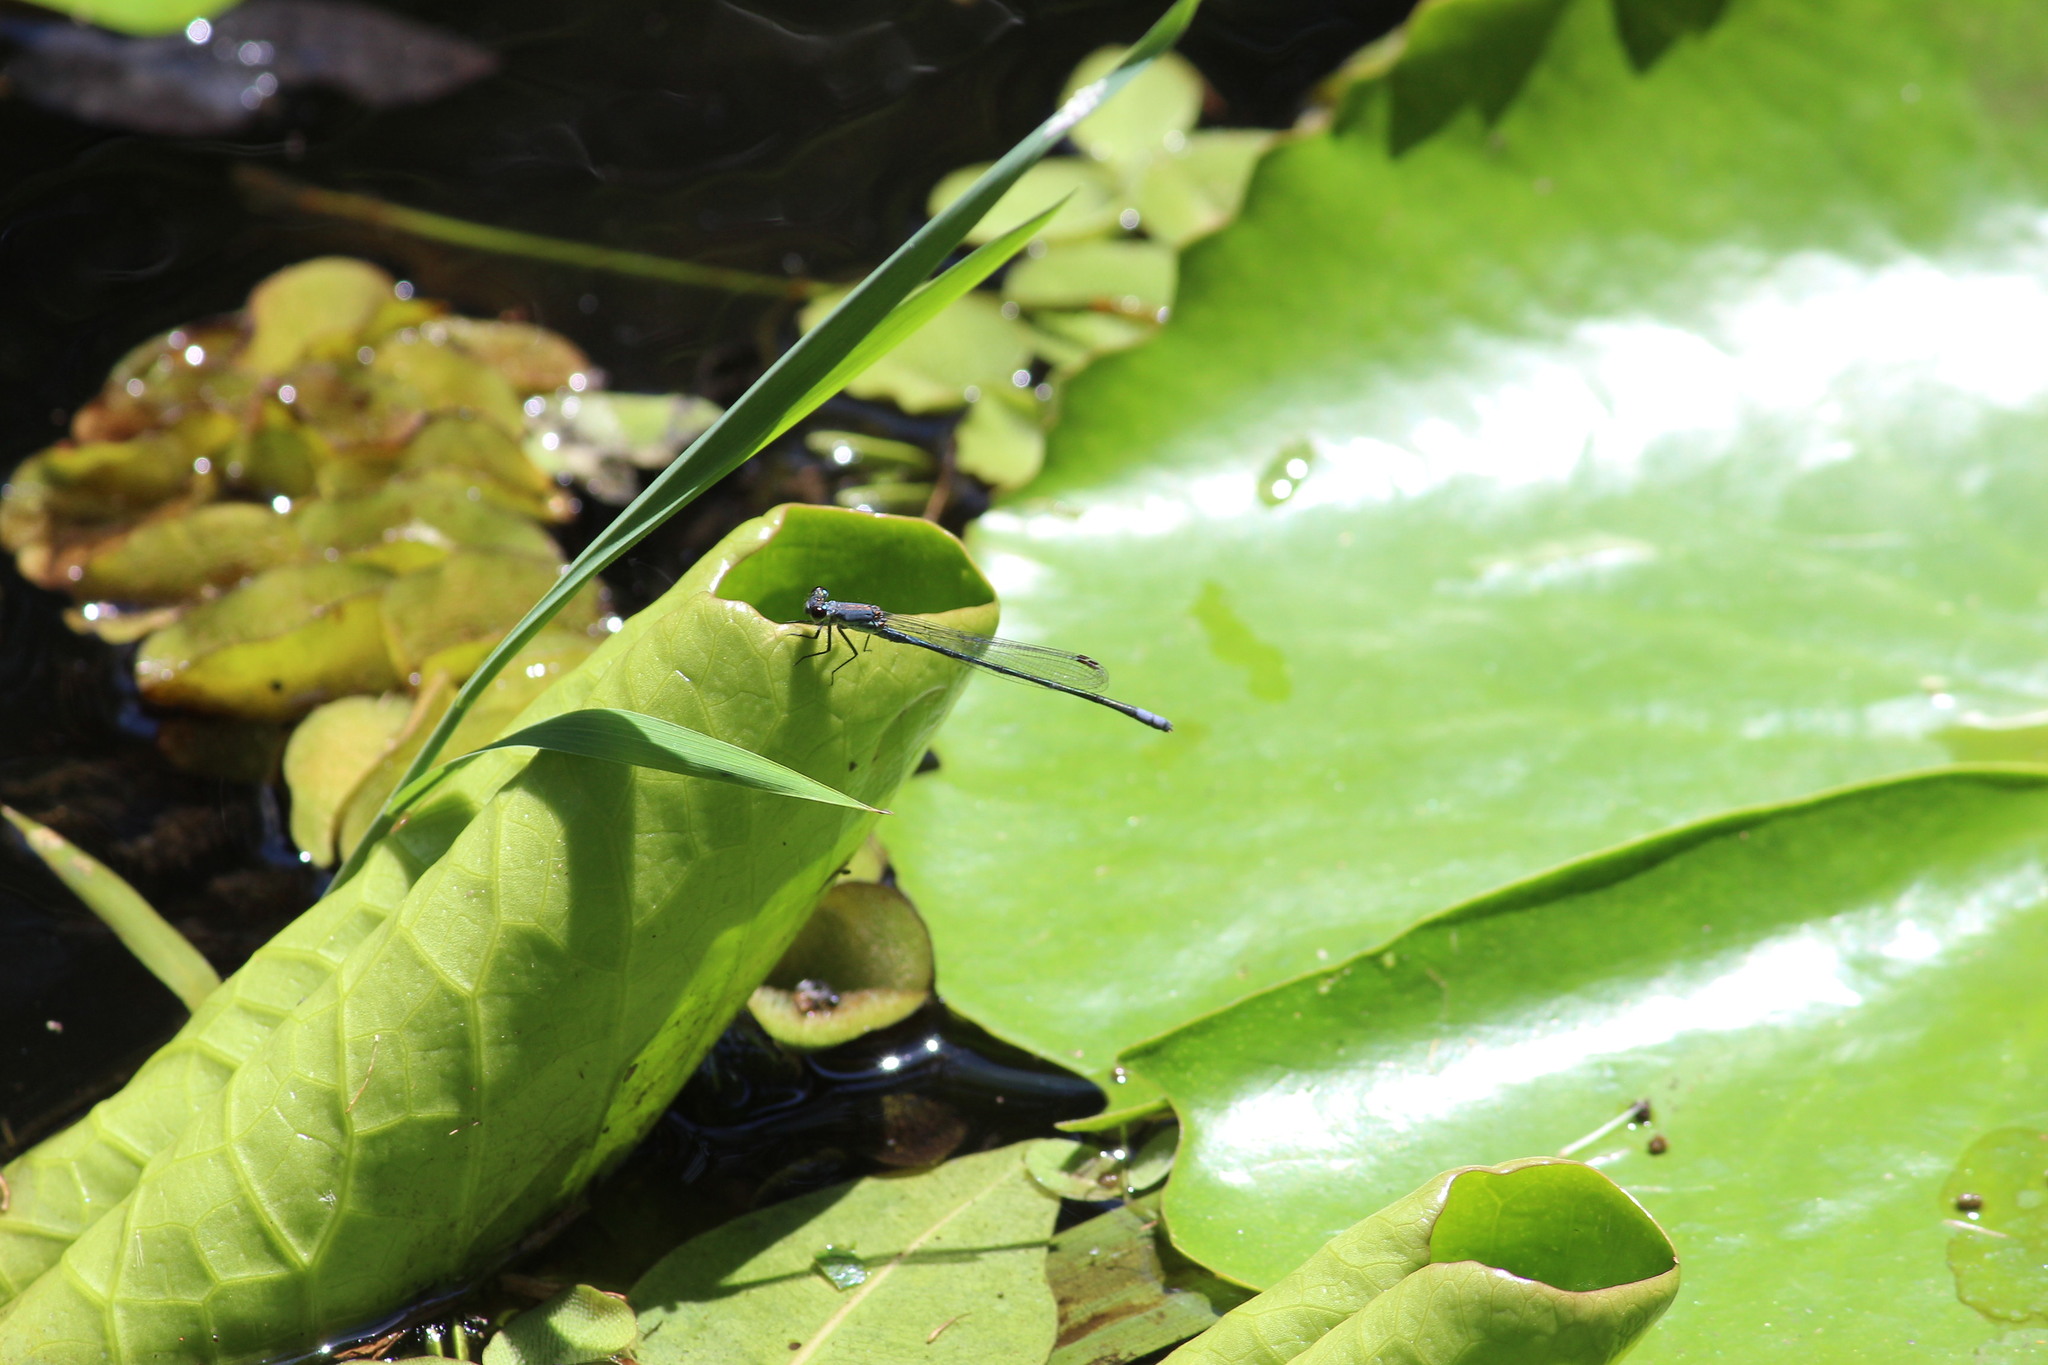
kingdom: Animalia
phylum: Arthropoda
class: Insecta
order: Odonata
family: Coenagrionidae
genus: Pseudagrion
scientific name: Pseudagrion salisburyense
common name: Slate sprite
